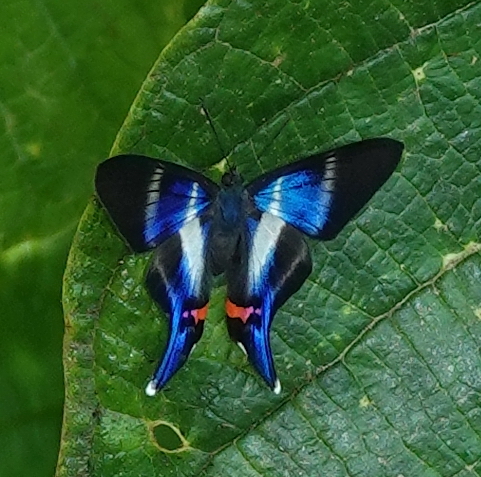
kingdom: Animalia
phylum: Arthropoda
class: Insecta
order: Lepidoptera
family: Riodinidae
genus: Rhetus
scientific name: Rhetus dysonii
